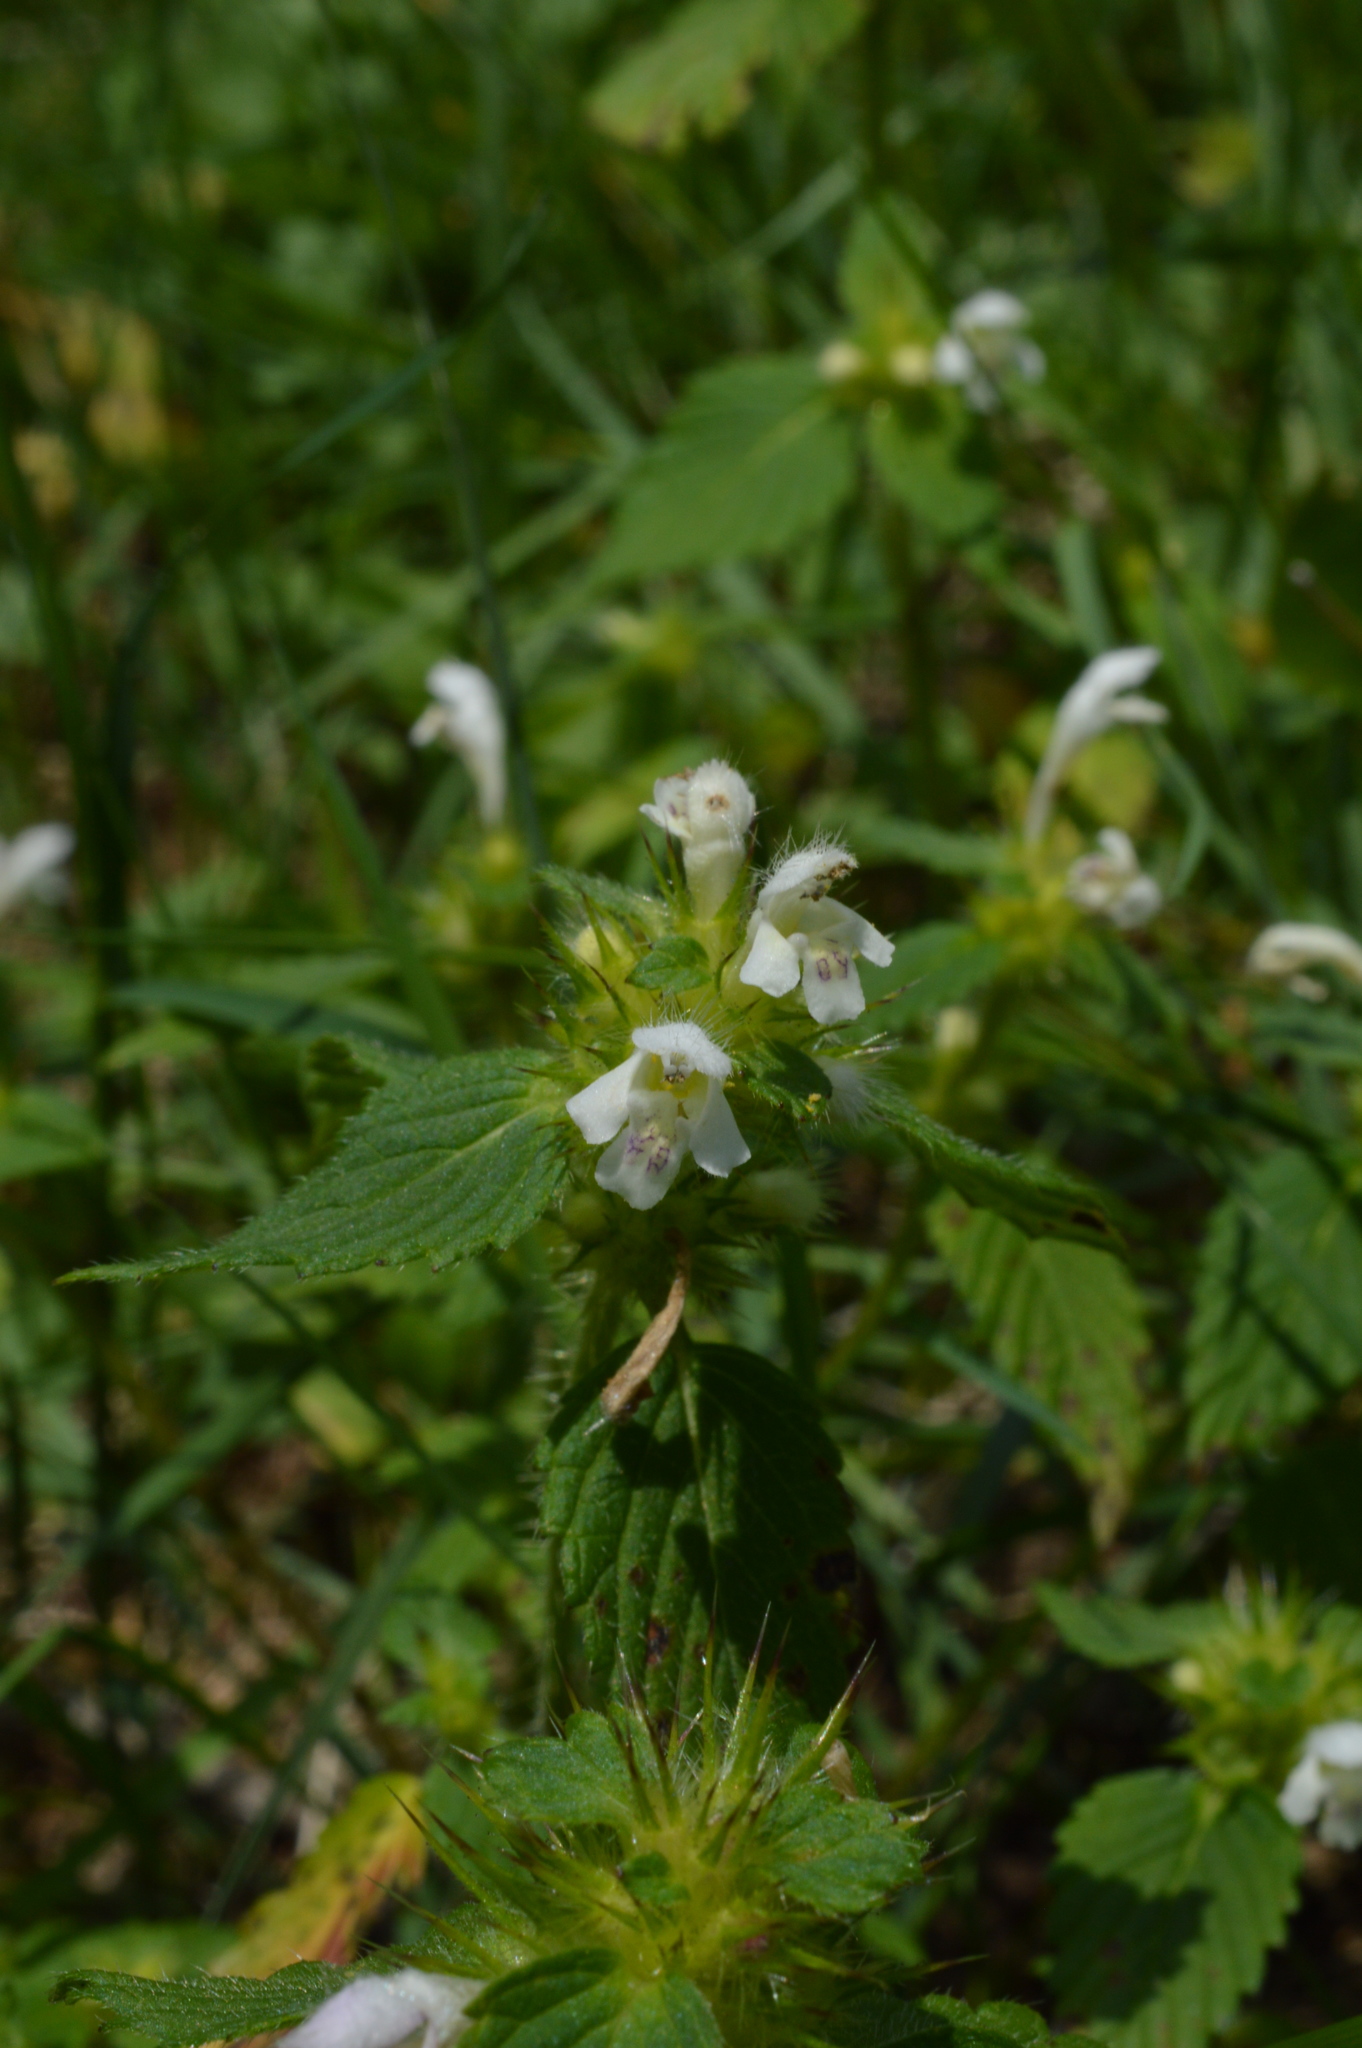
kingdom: Plantae
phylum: Tracheophyta
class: Magnoliopsida
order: Lamiales
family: Lamiaceae
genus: Galeopsis
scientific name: Galeopsis tetrahit
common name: Common hemp-nettle
